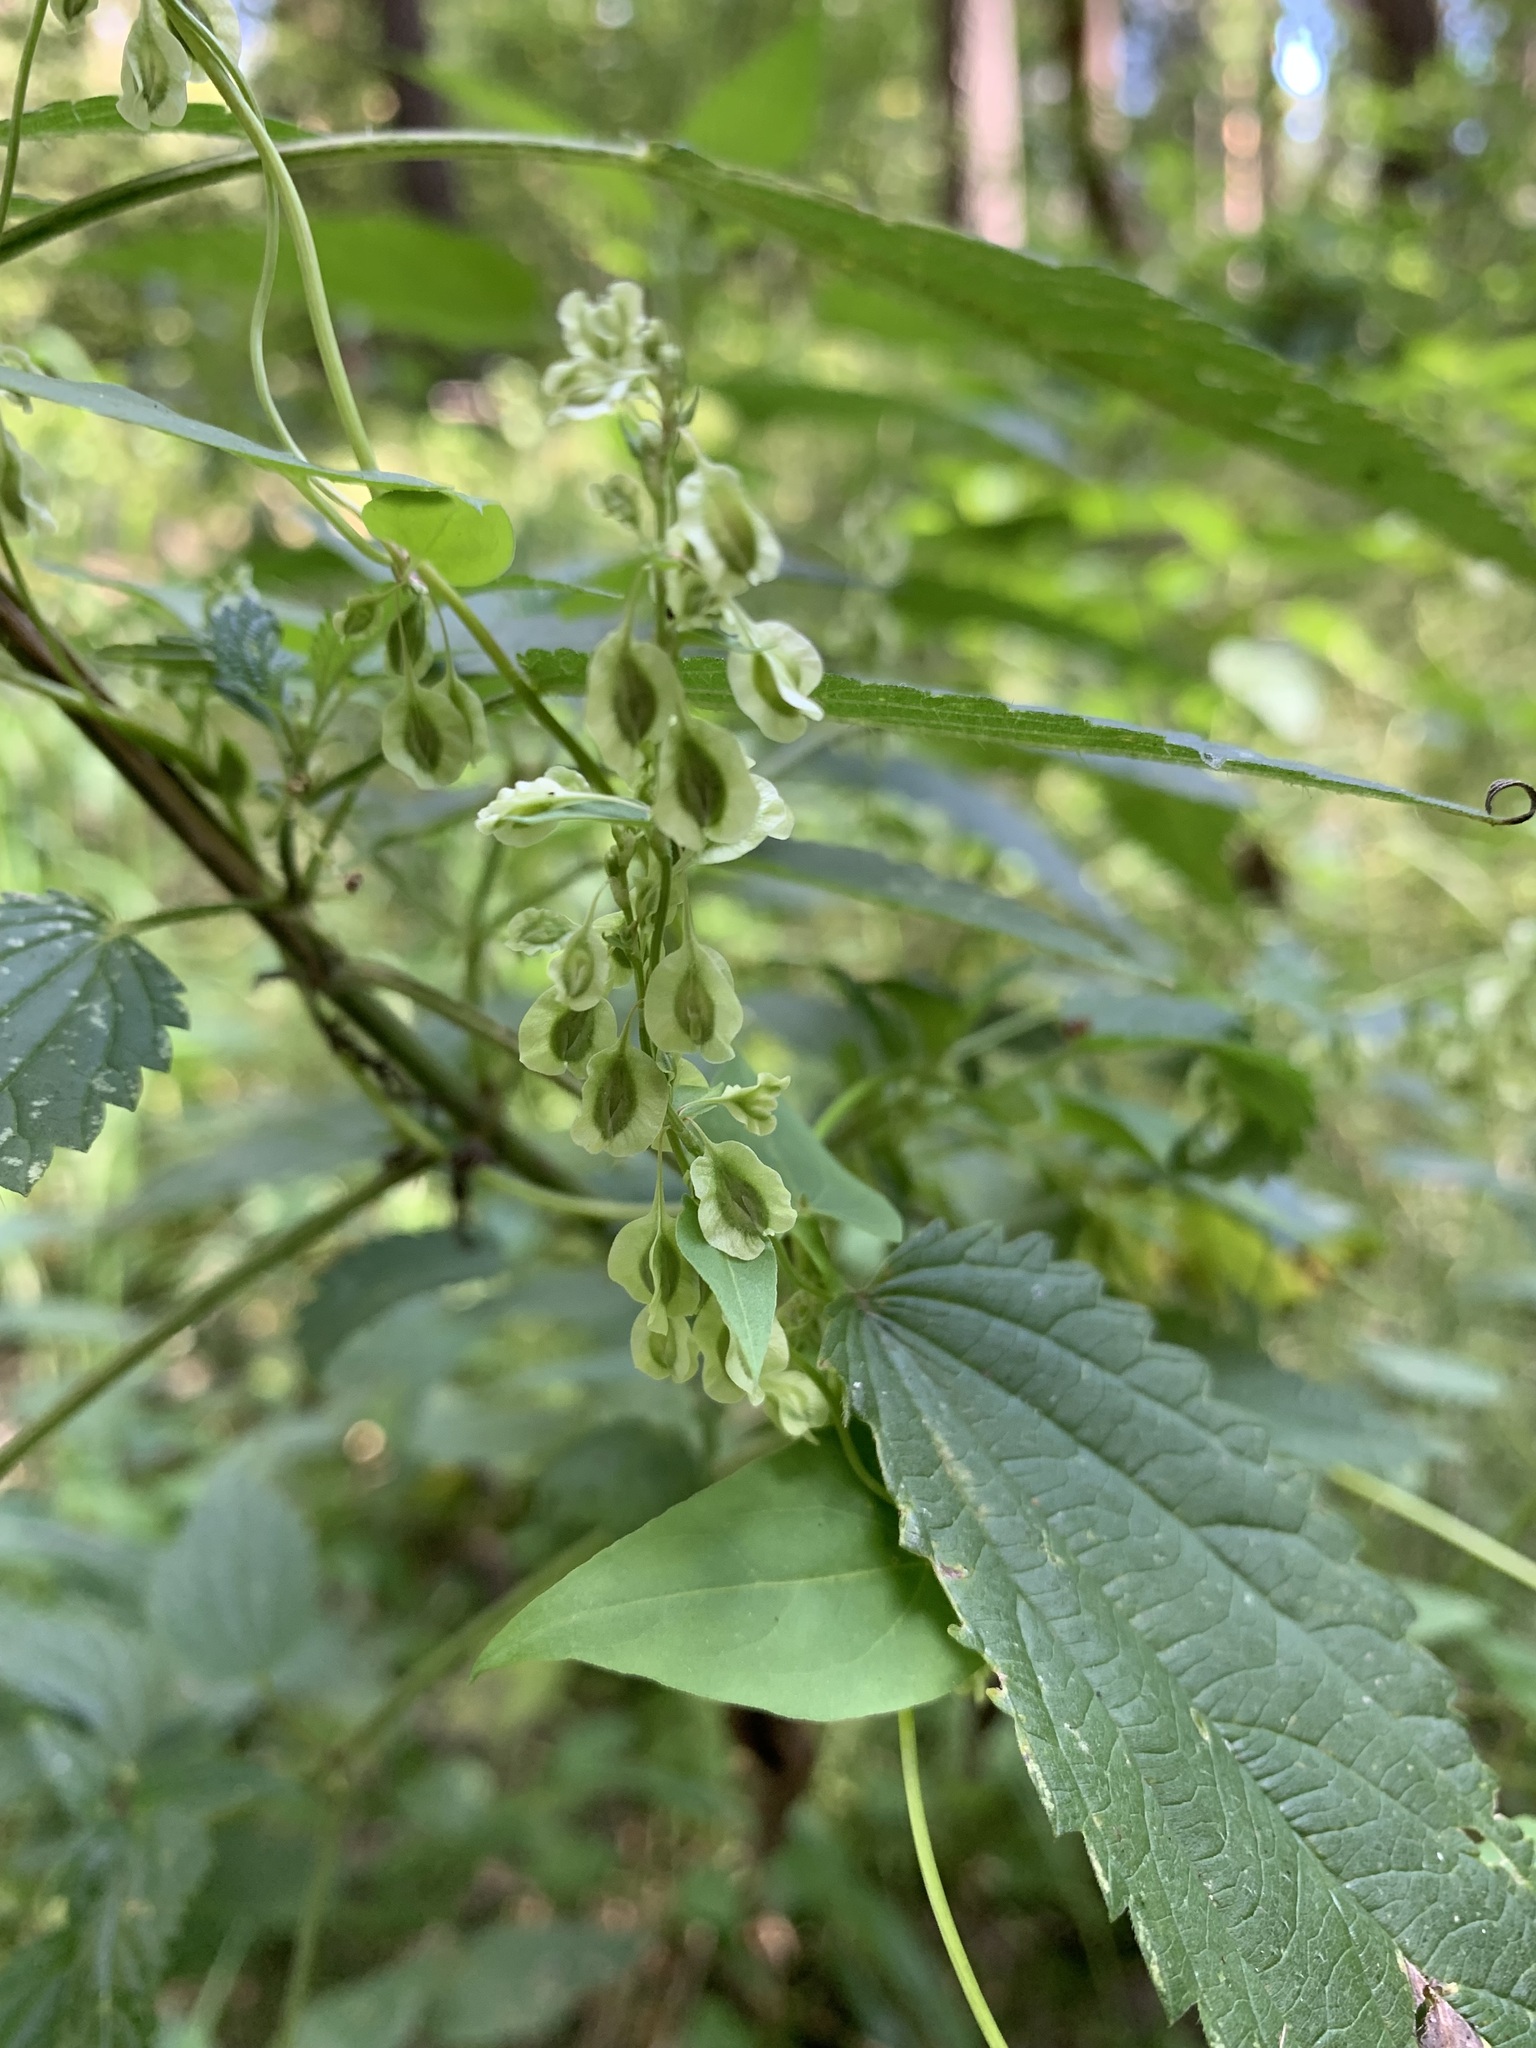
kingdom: Plantae
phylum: Tracheophyta
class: Magnoliopsida
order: Caryophyllales
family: Polygonaceae
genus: Fallopia
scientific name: Fallopia dumetorum
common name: Copse-bindweed
